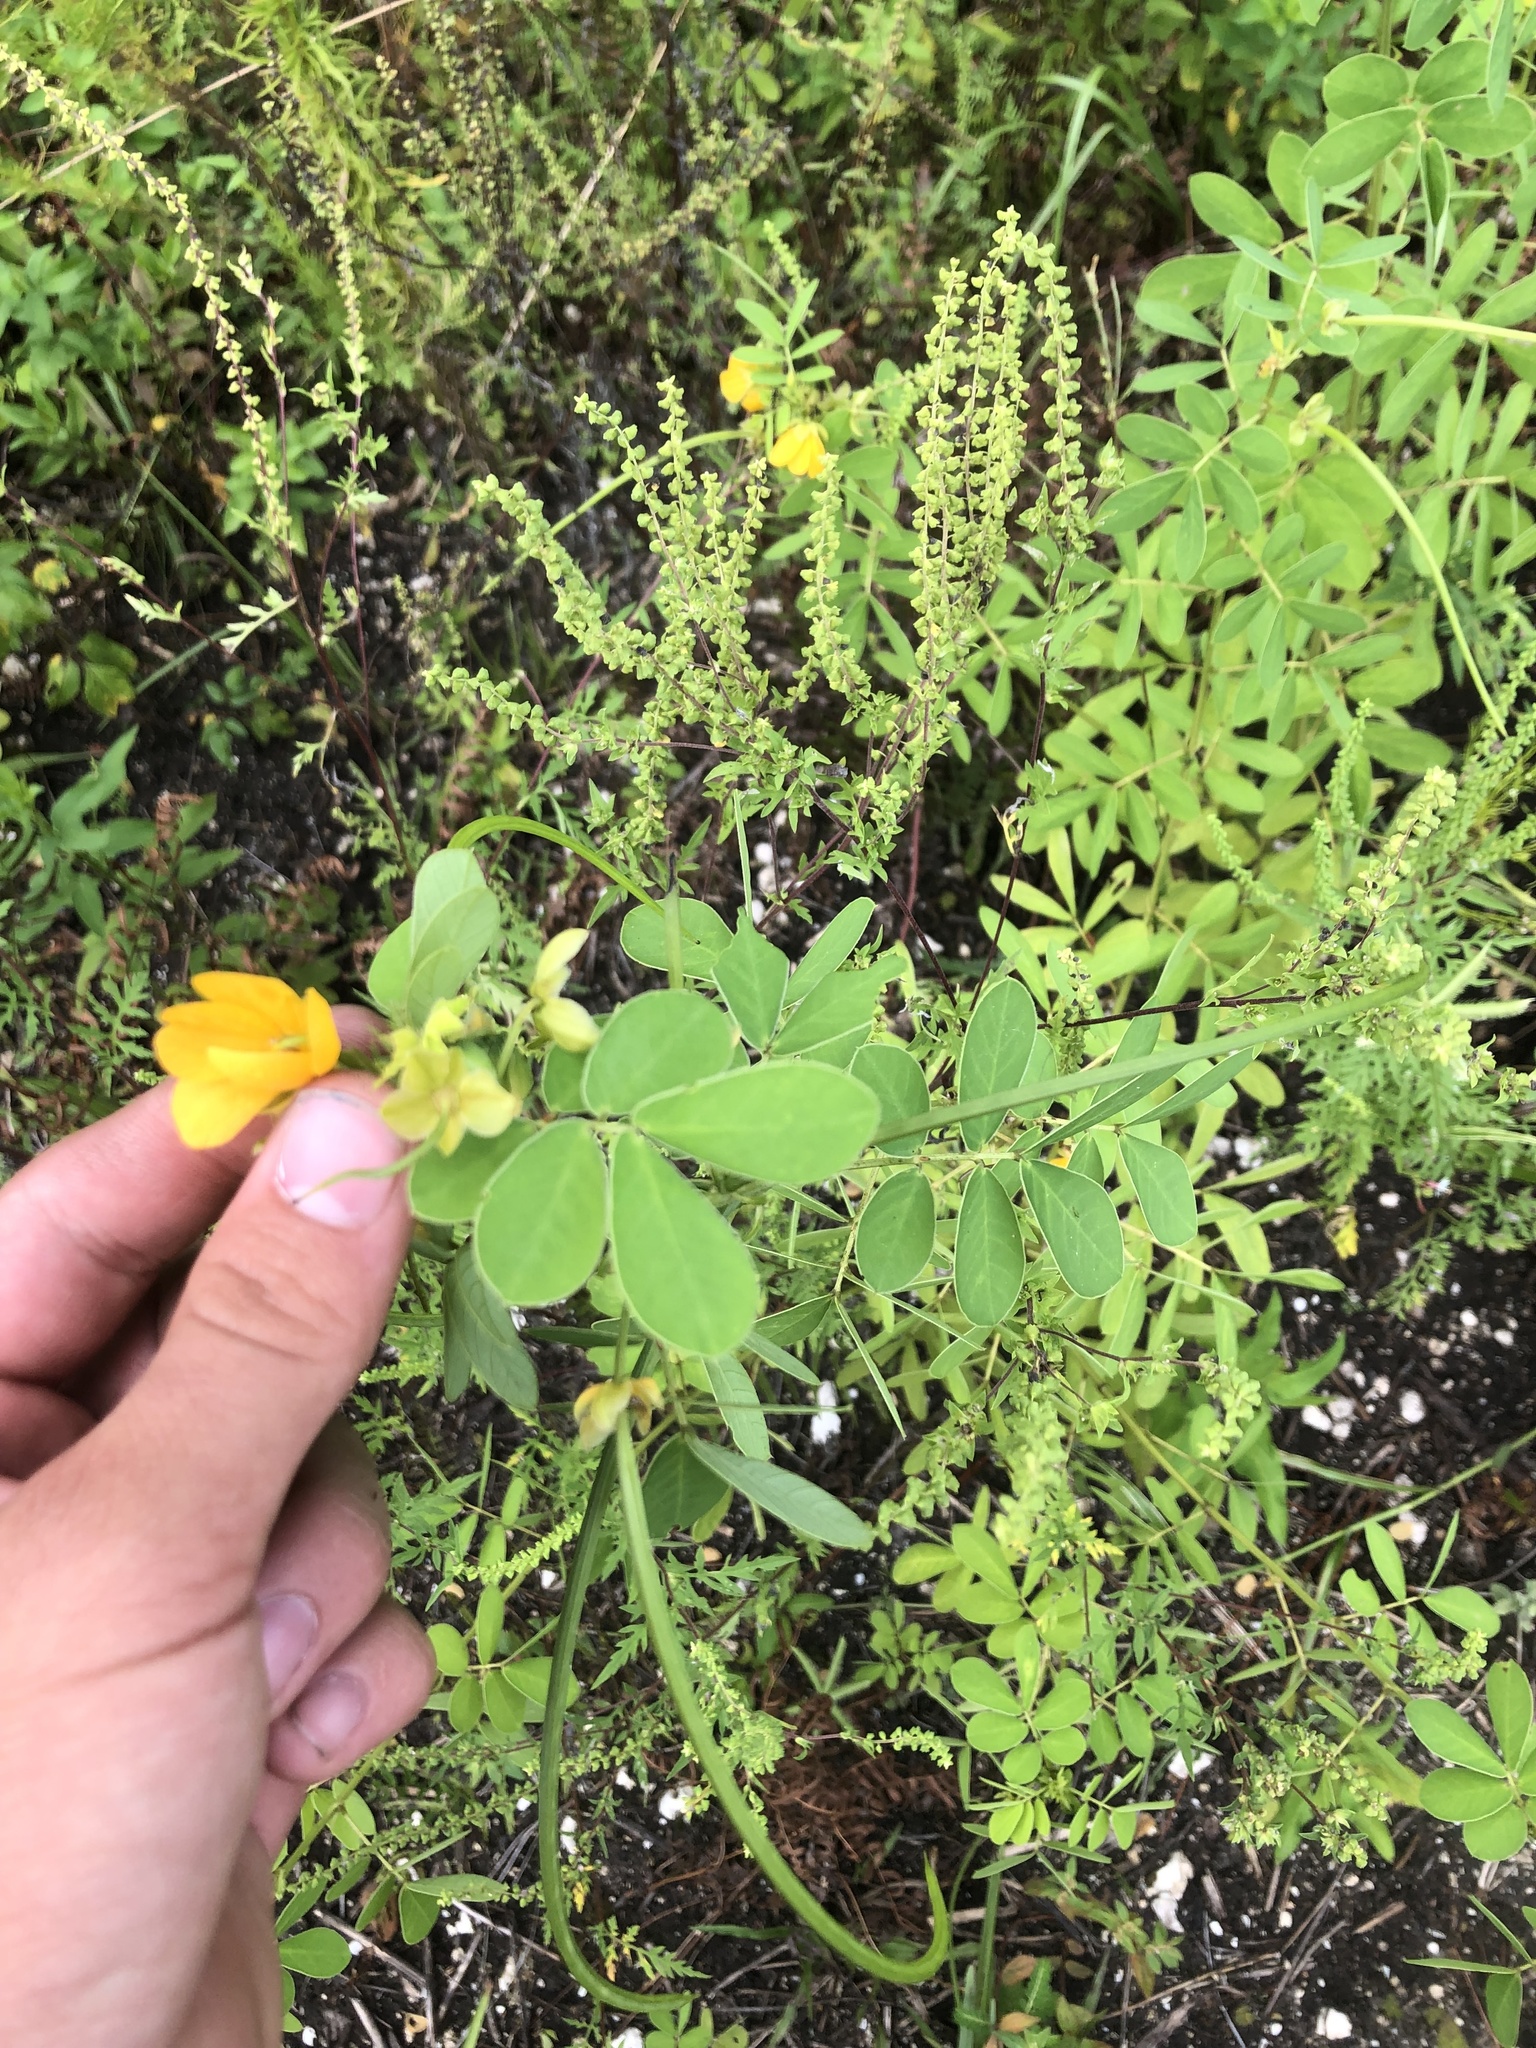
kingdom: Plantae
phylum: Tracheophyta
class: Magnoliopsida
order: Fabales
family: Fabaceae
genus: Senna
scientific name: Senna obtusifolia
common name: Java-bean
